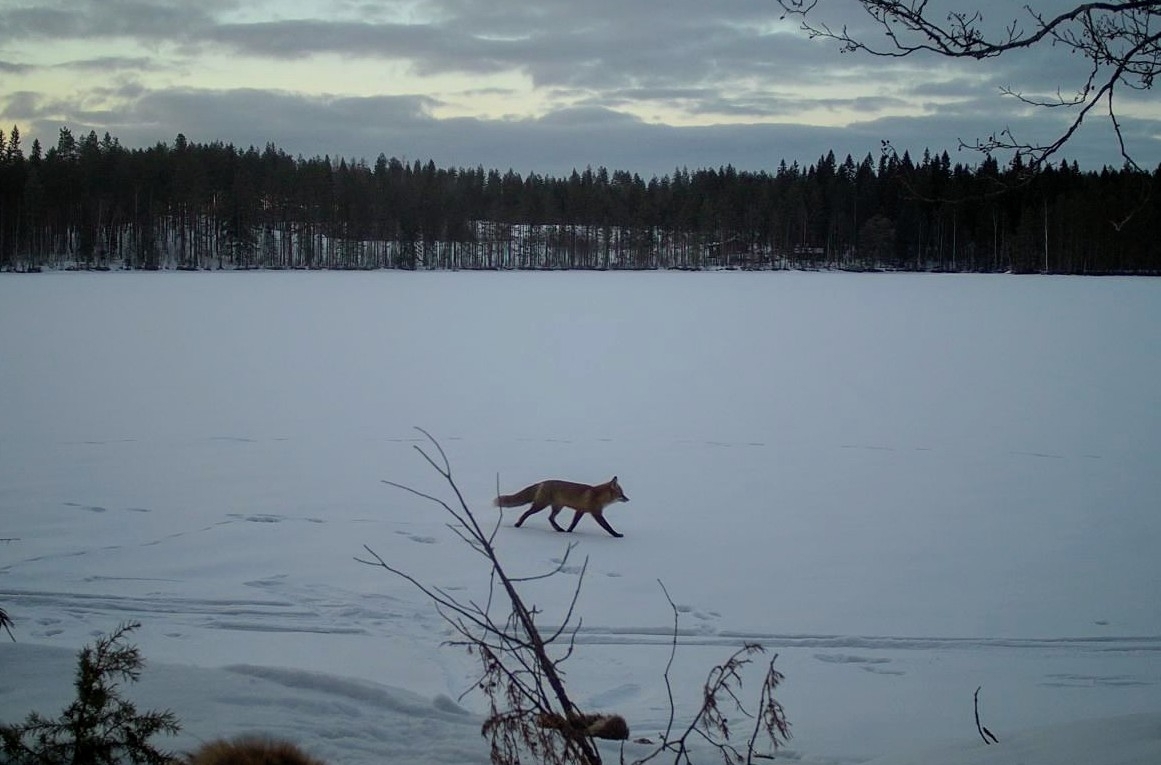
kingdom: Animalia
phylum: Chordata
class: Mammalia
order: Carnivora
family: Canidae
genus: Vulpes
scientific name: Vulpes vulpes
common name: Red fox
